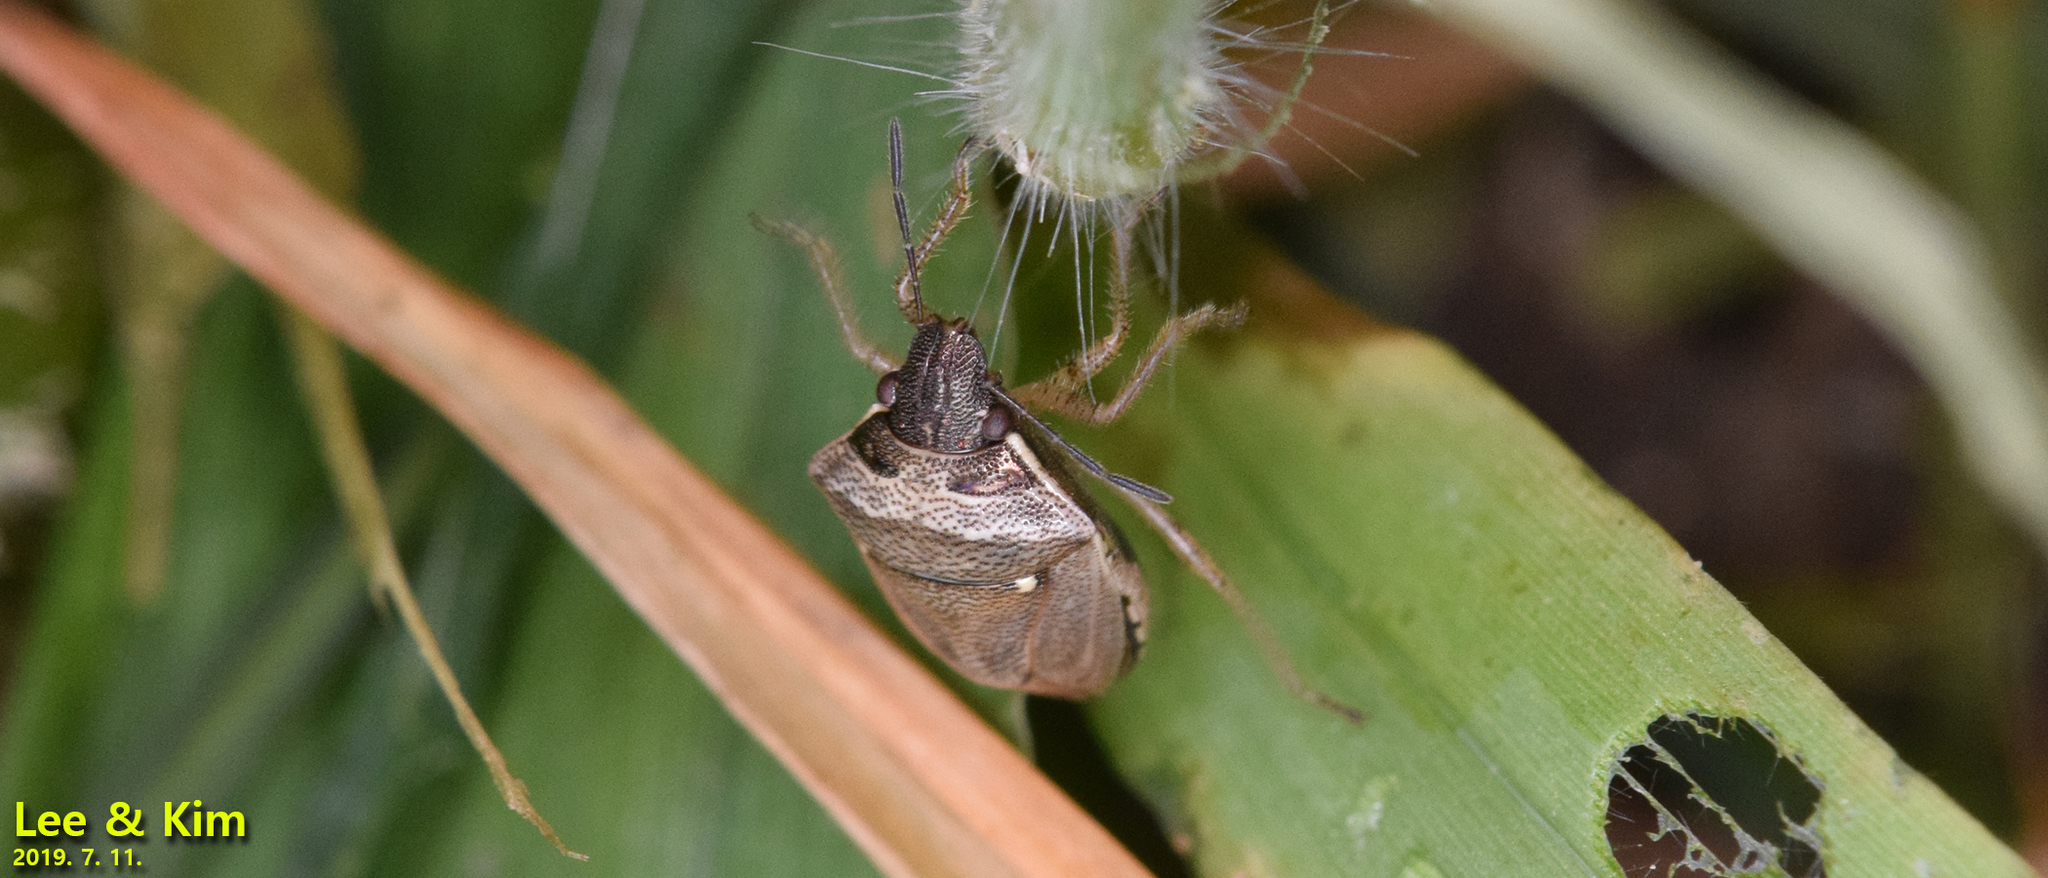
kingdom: Animalia
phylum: Arthropoda
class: Insecta
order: Hemiptera
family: Pentatomidae
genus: Eysarcoris
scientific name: Eysarcoris ventralis
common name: White-spotted stink bug
